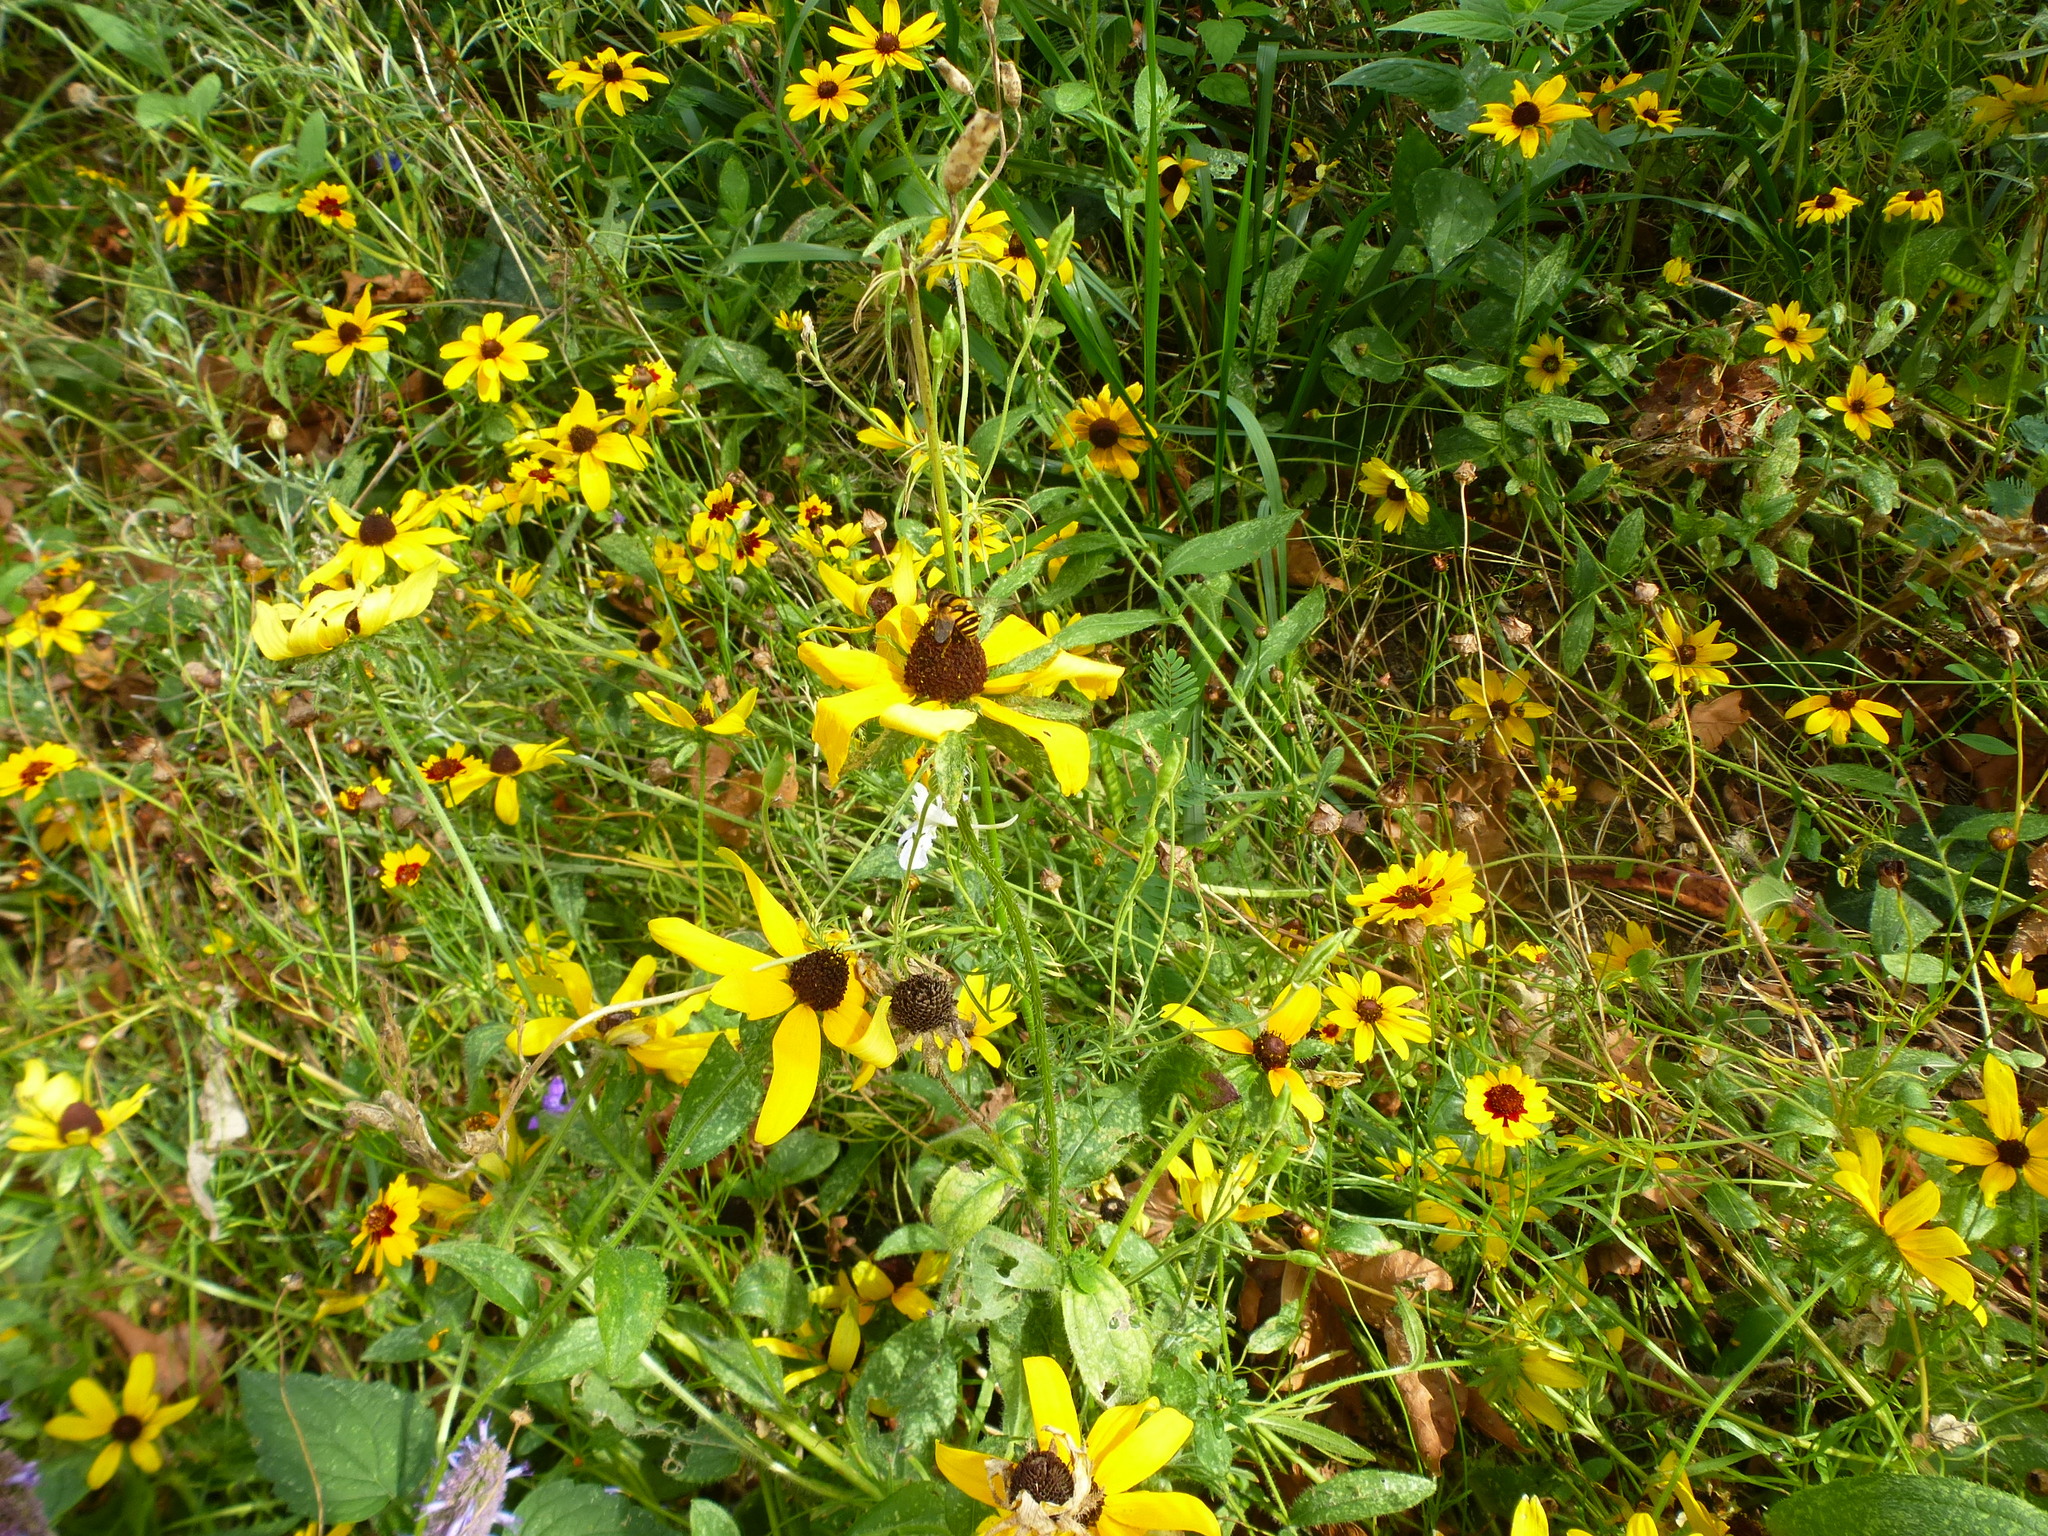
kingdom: Animalia
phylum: Arthropoda
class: Insecta
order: Diptera
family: Syrphidae
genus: Eristalis
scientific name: Eristalis transversa
